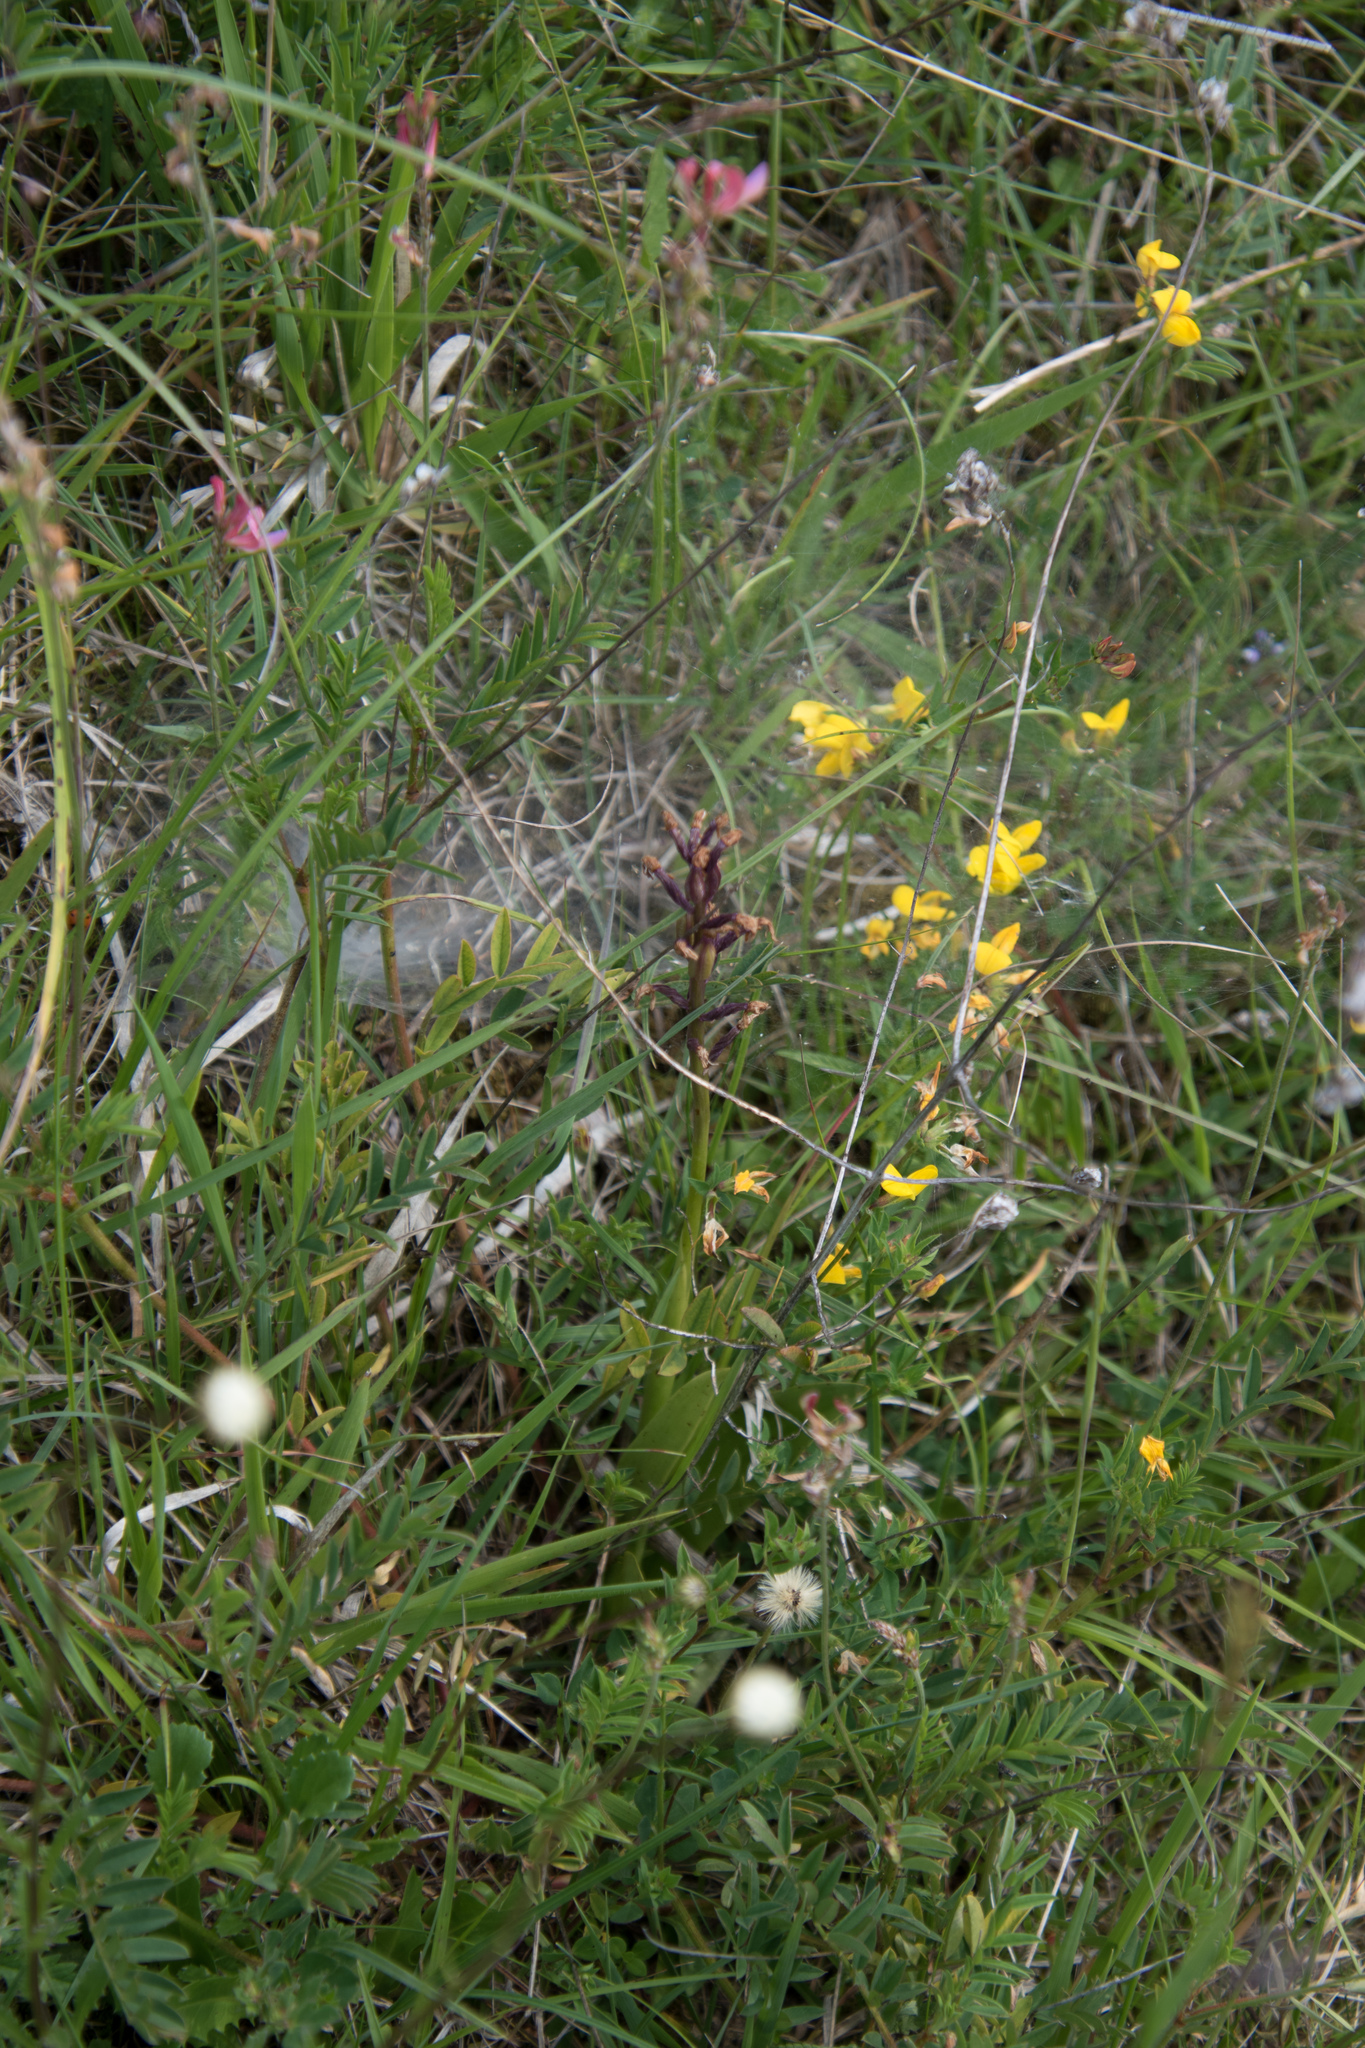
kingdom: Plantae
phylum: Tracheophyta
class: Liliopsida
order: Asparagales
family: Orchidaceae
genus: Orchis
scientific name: Orchis militaris
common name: Military orchid
